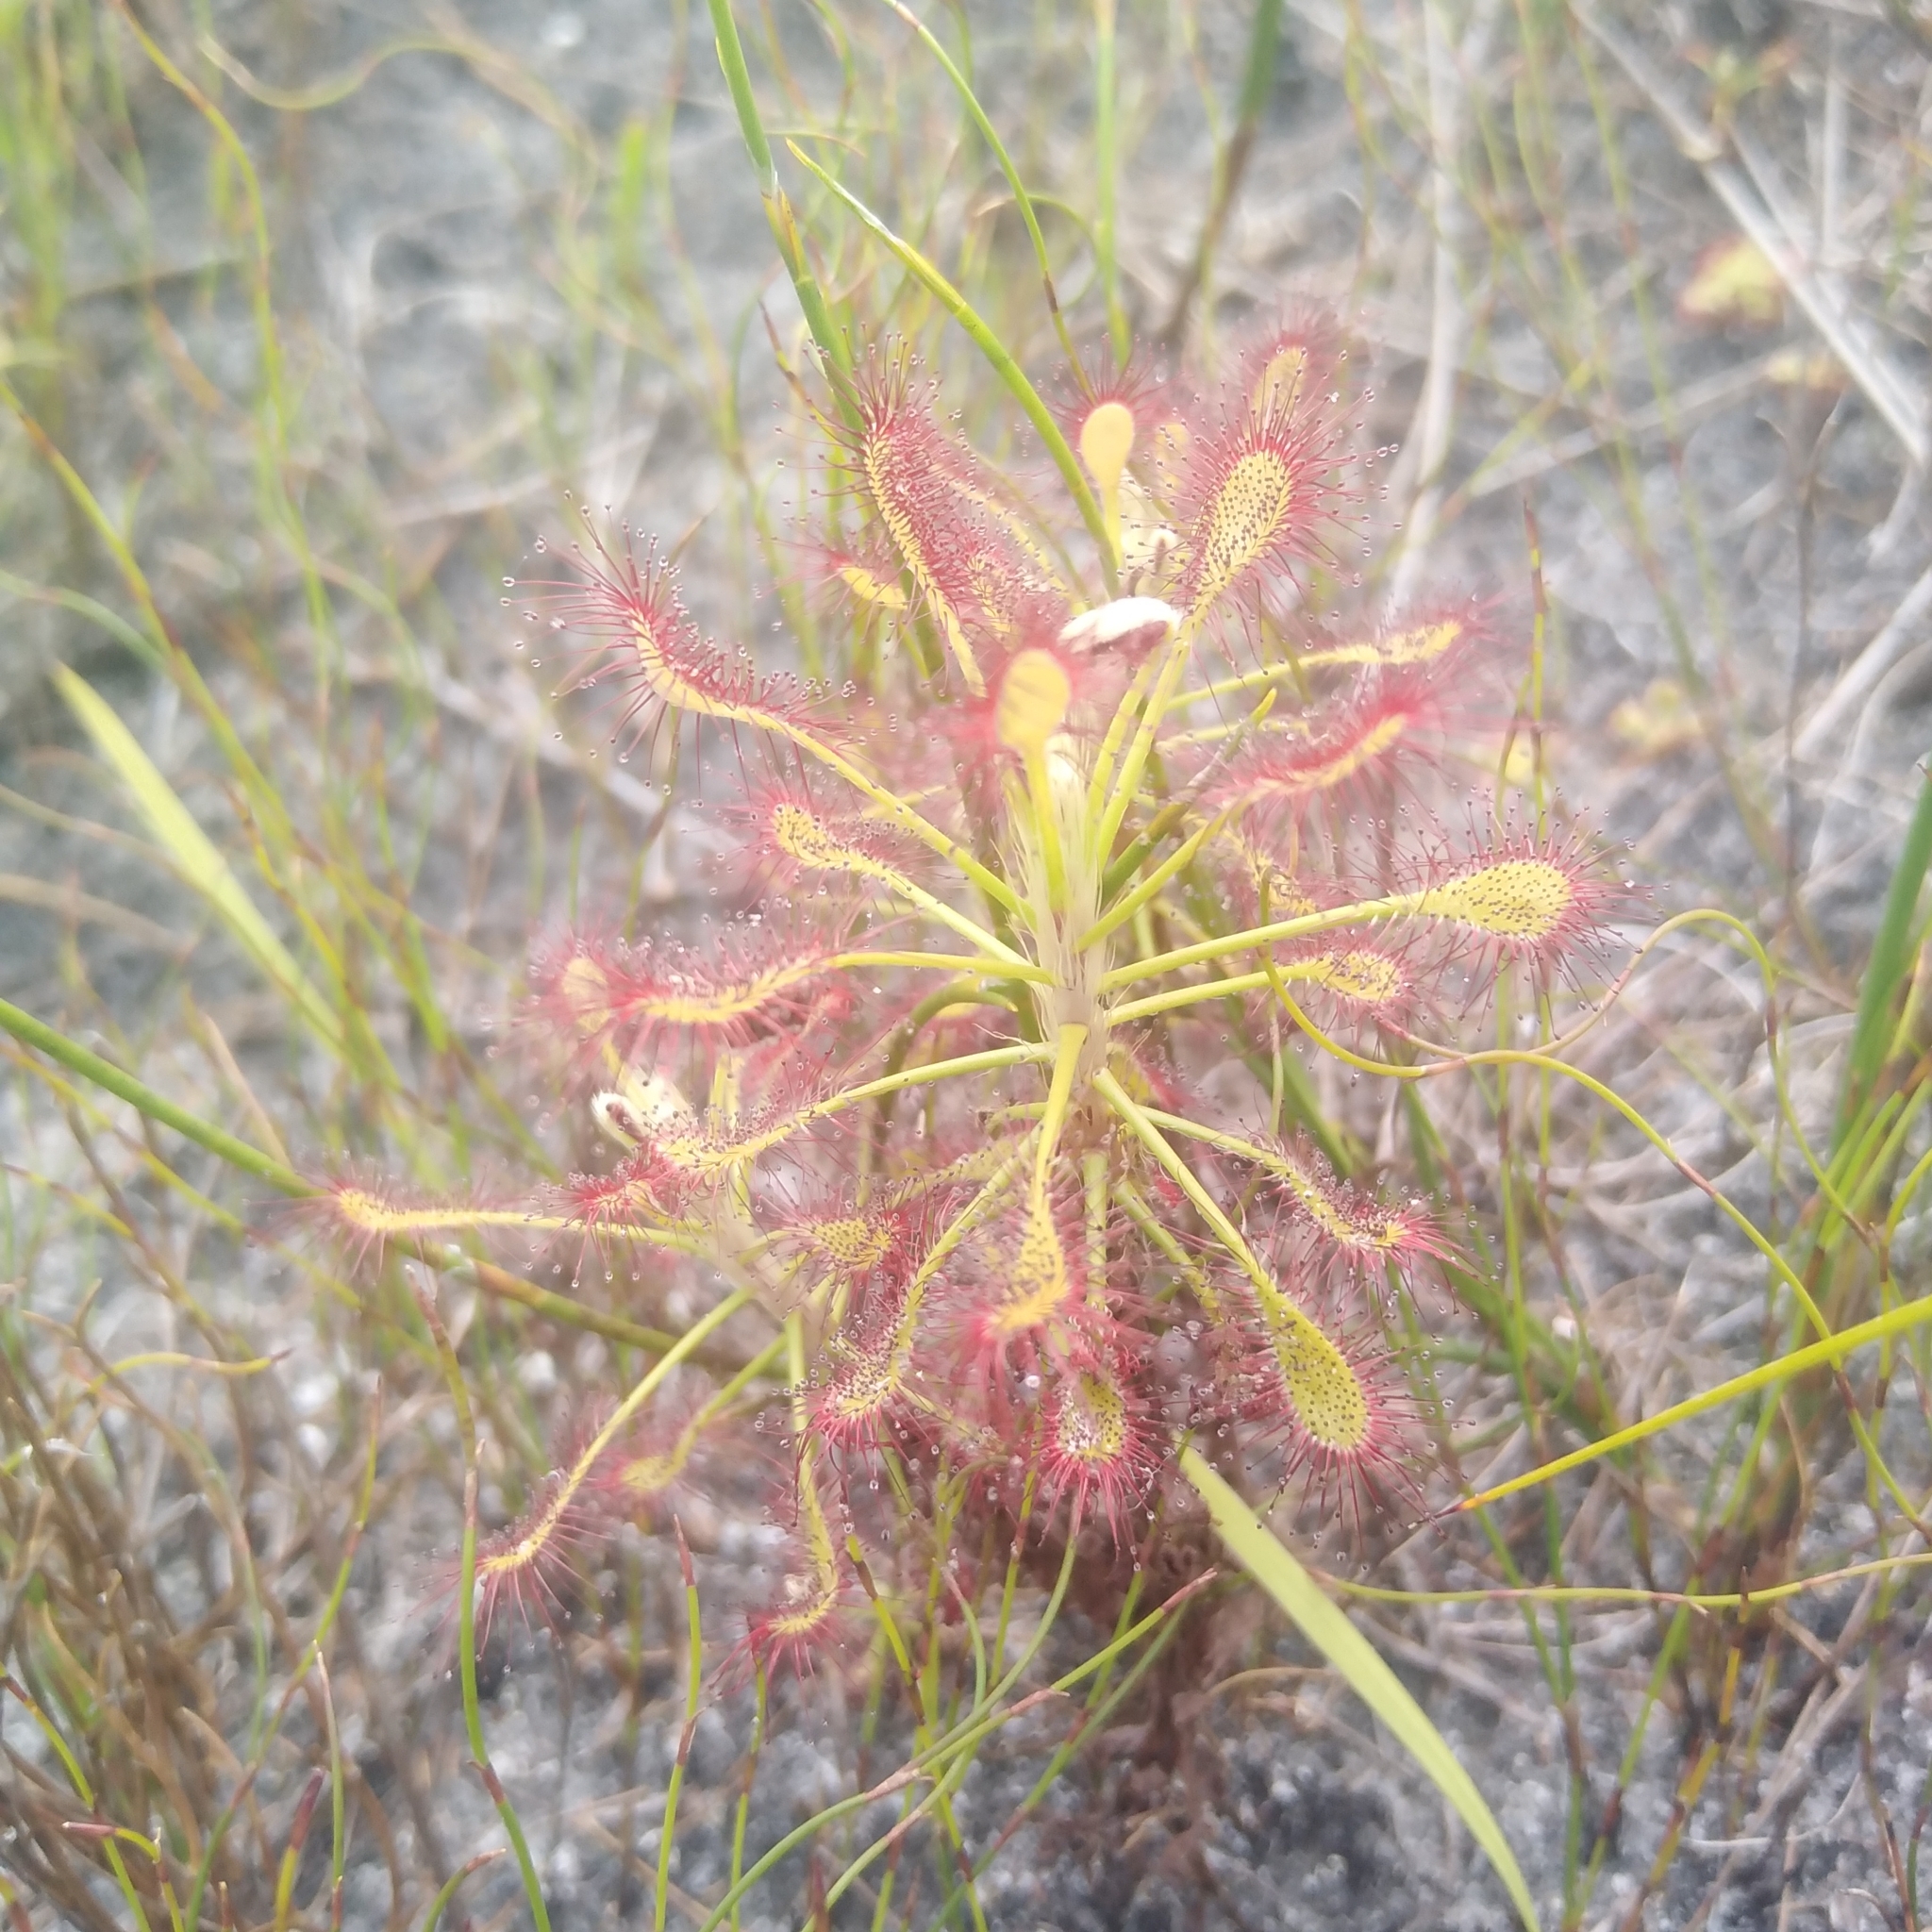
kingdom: Plantae
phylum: Tracheophyta
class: Magnoliopsida
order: Caryophyllales
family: Droseraceae
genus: Drosera
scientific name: Drosera glabripes
